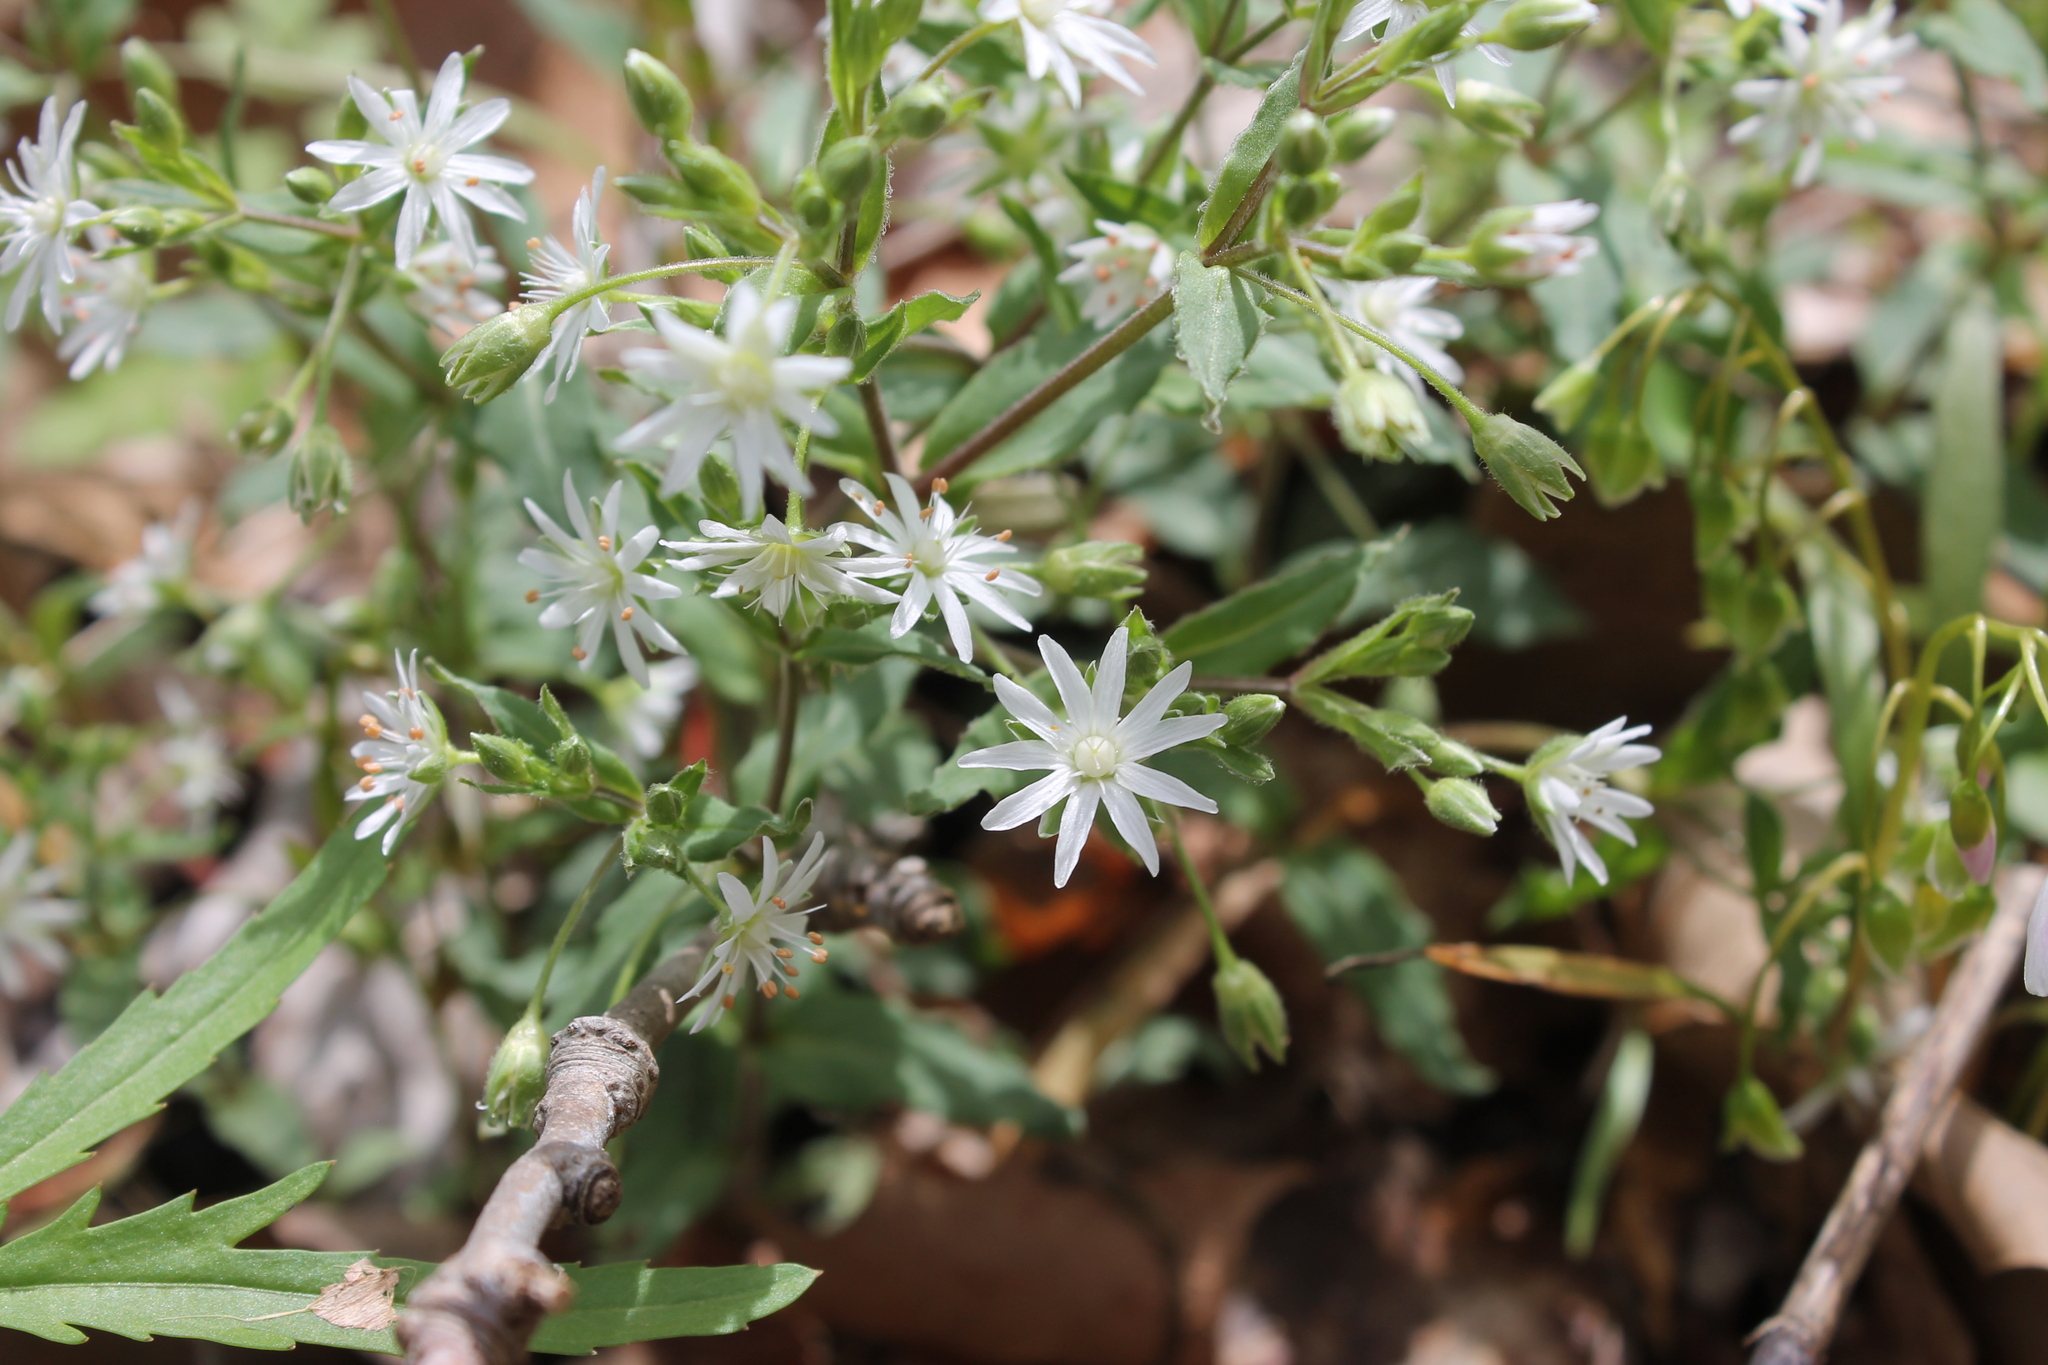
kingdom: Plantae
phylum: Tracheophyta
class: Magnoliopsida
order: Caryophyllales
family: Caryophyllaceae
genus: Stellaria
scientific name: Stellaria pubera
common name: Star chickweed
